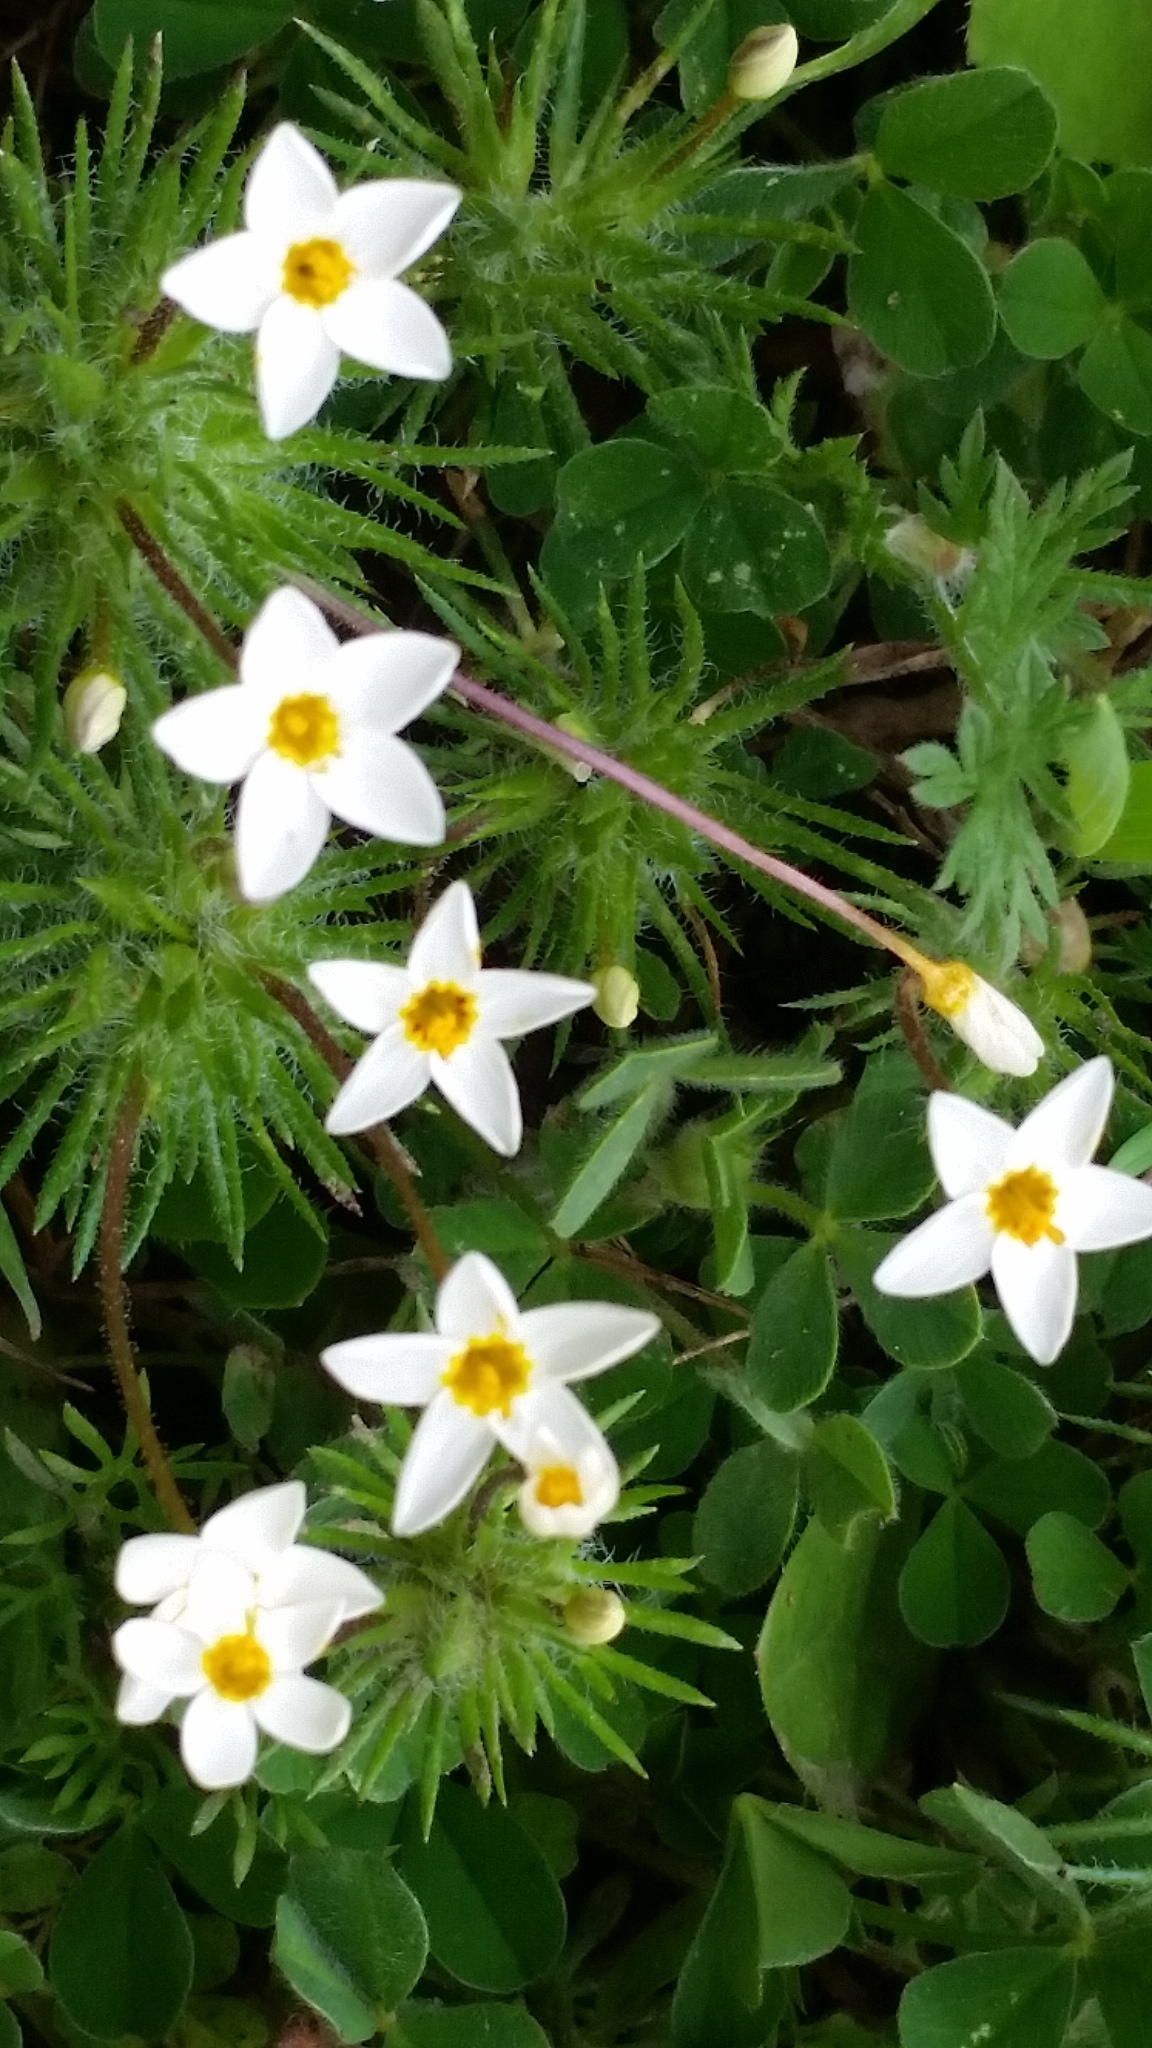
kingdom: Plantae
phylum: Tracheophyta
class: Magnoliopsida
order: Ericales
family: Polemoniaceae
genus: Leptosiphon
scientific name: Leptosiphon parviflorus
